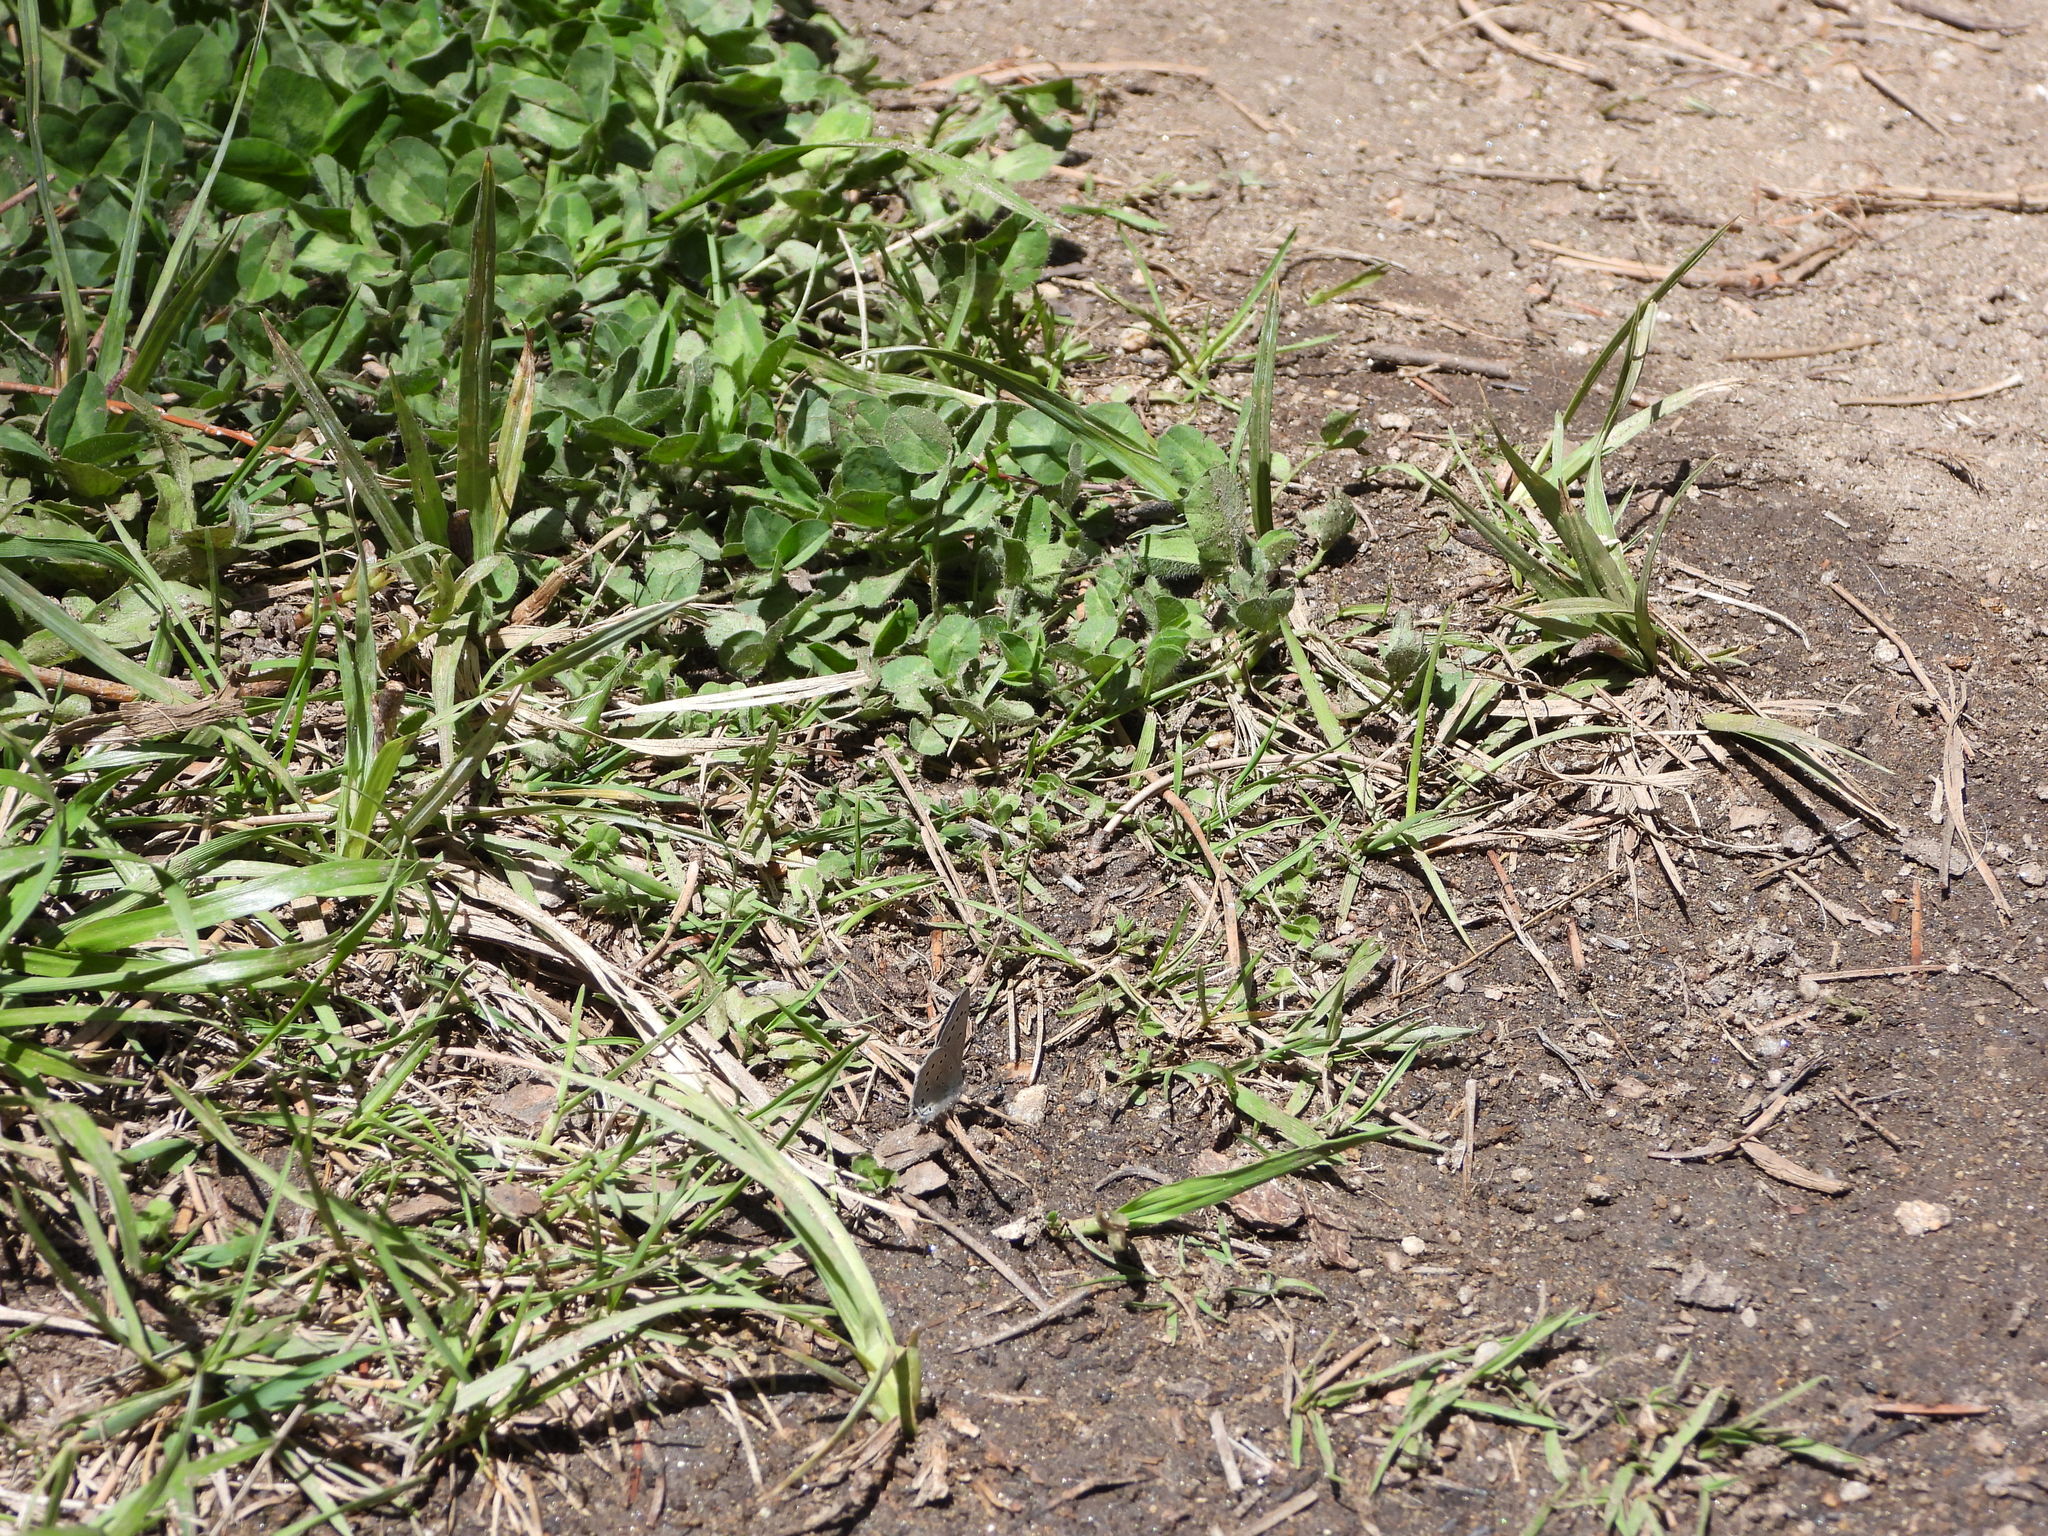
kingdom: Animalia
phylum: Arthropoda
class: Insecta
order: Lepidoptera
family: Lycaenidae
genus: Glaucopsyche
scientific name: Glaucopsyche lygdamus
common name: Silvery blue
